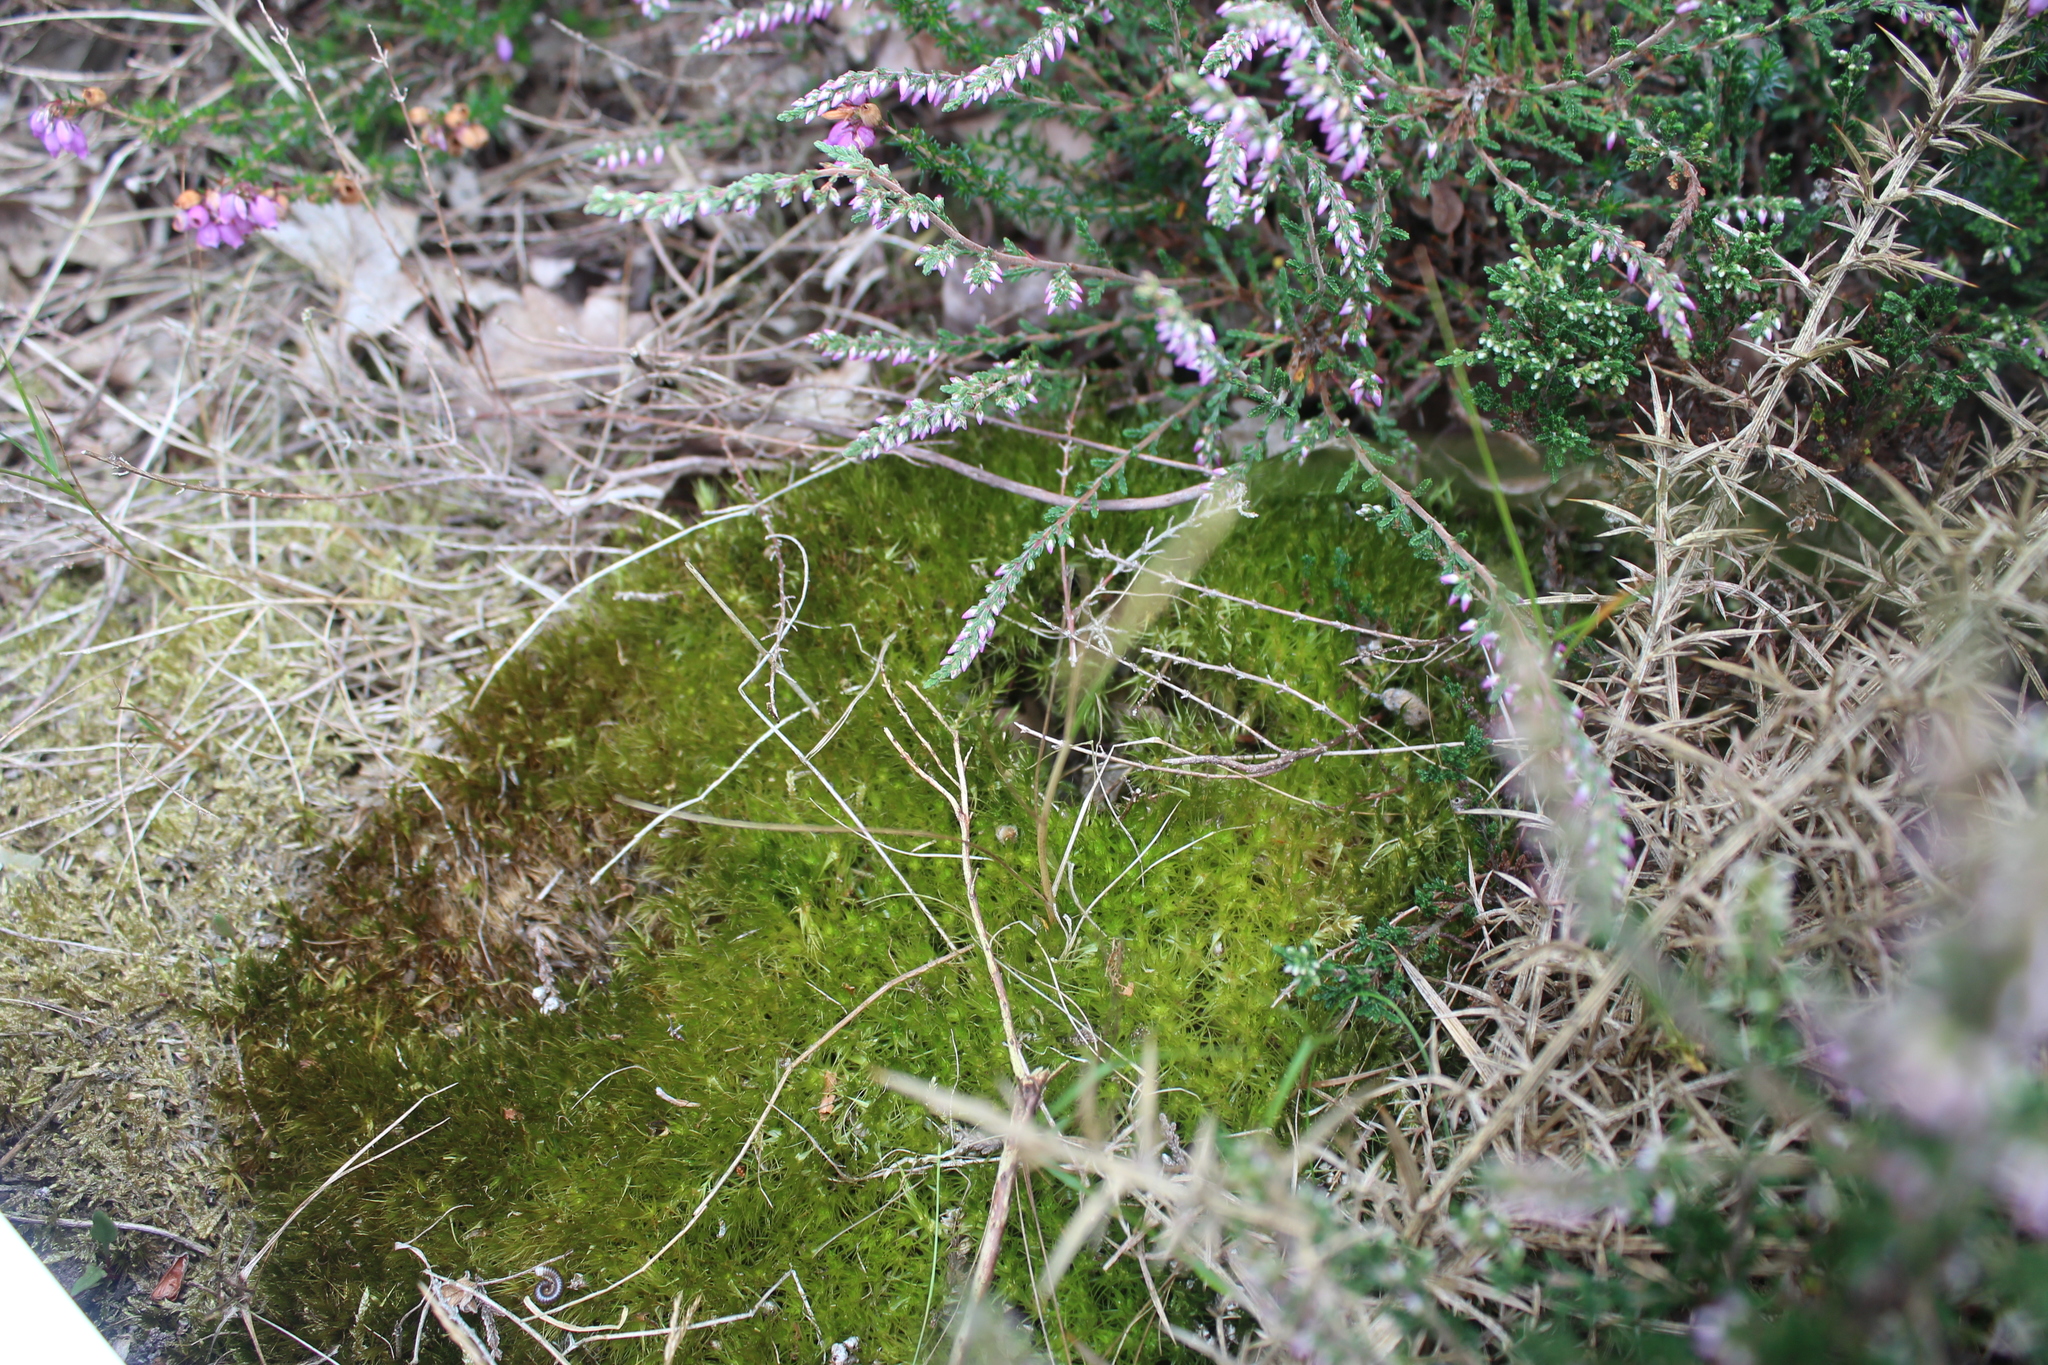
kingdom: Plantae
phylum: Bryophyta
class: Bryopsida
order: Dicranales
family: Dicranaceae
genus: Dicranum
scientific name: Dicranum scoparium
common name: Broom fork-moss
